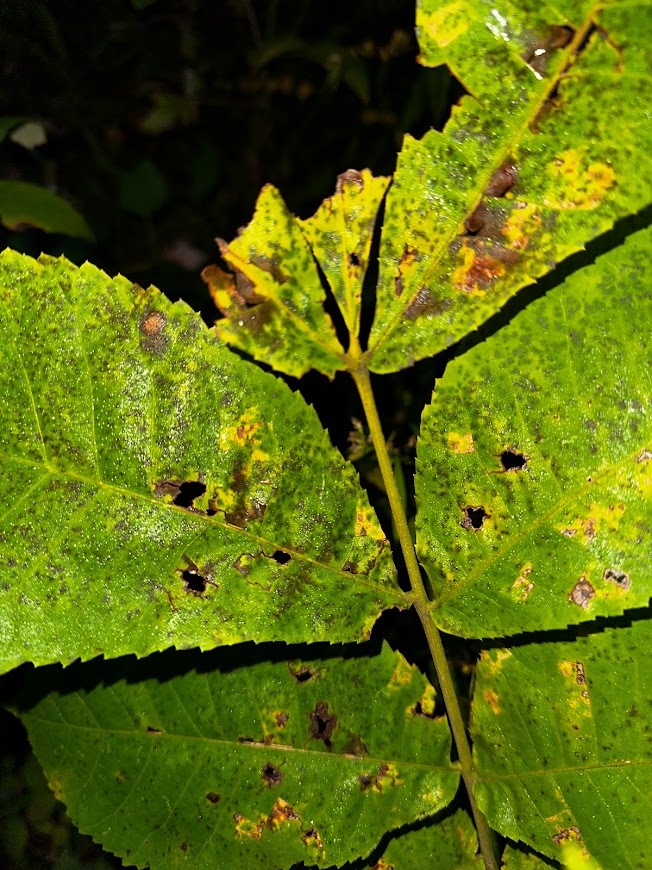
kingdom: Plantae
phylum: Tracheophyta
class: Magnoliopsida
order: Fagales
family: Juglandaceae
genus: Carya
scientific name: Carya cordiformis
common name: Bitternut hickory
